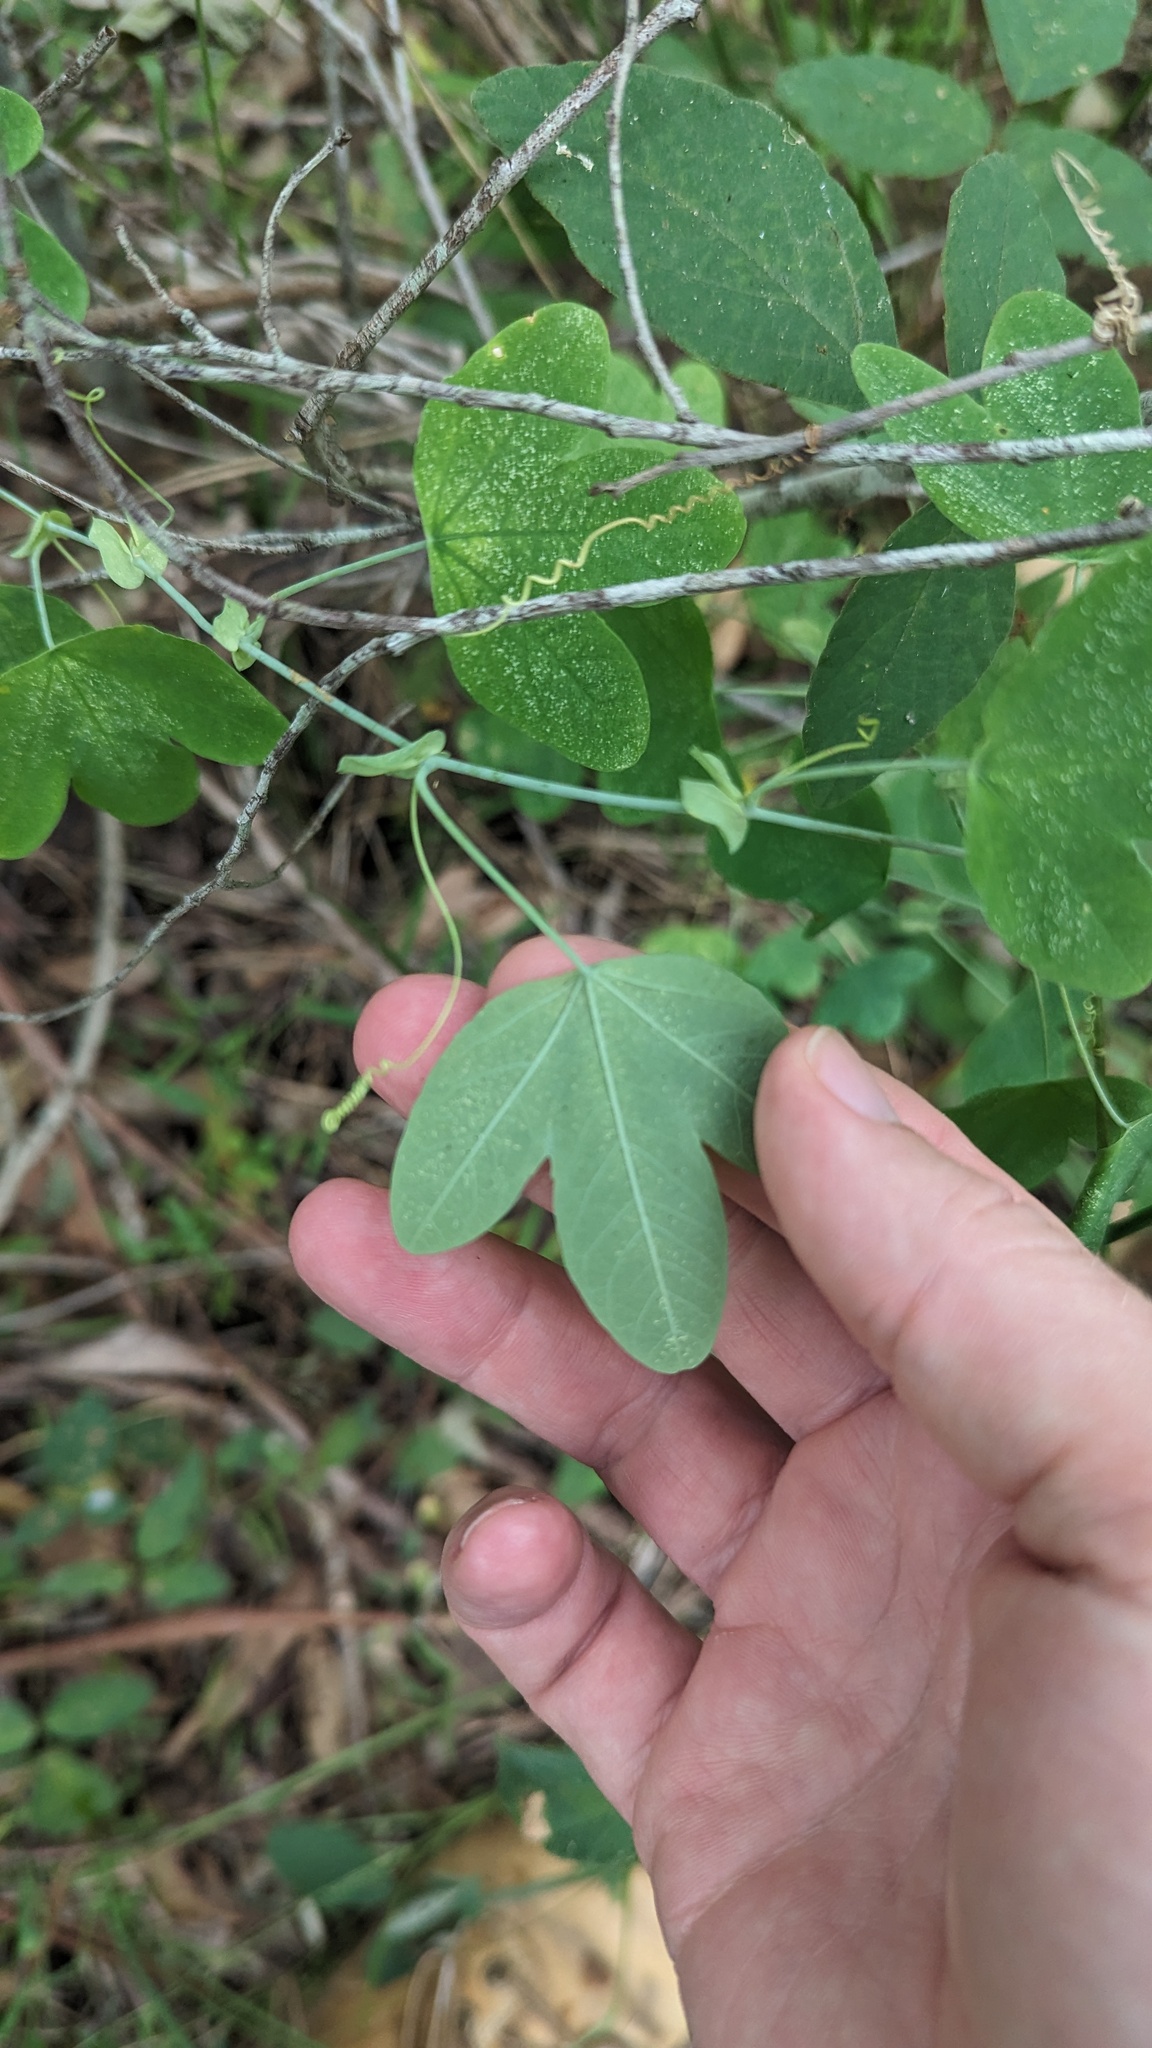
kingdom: Plantae
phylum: Tracheophyta
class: Magnoliopsida
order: Malpighiales
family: Passifloraceae
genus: Passiflora
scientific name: Passiflora subpeltata
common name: White passionflower
